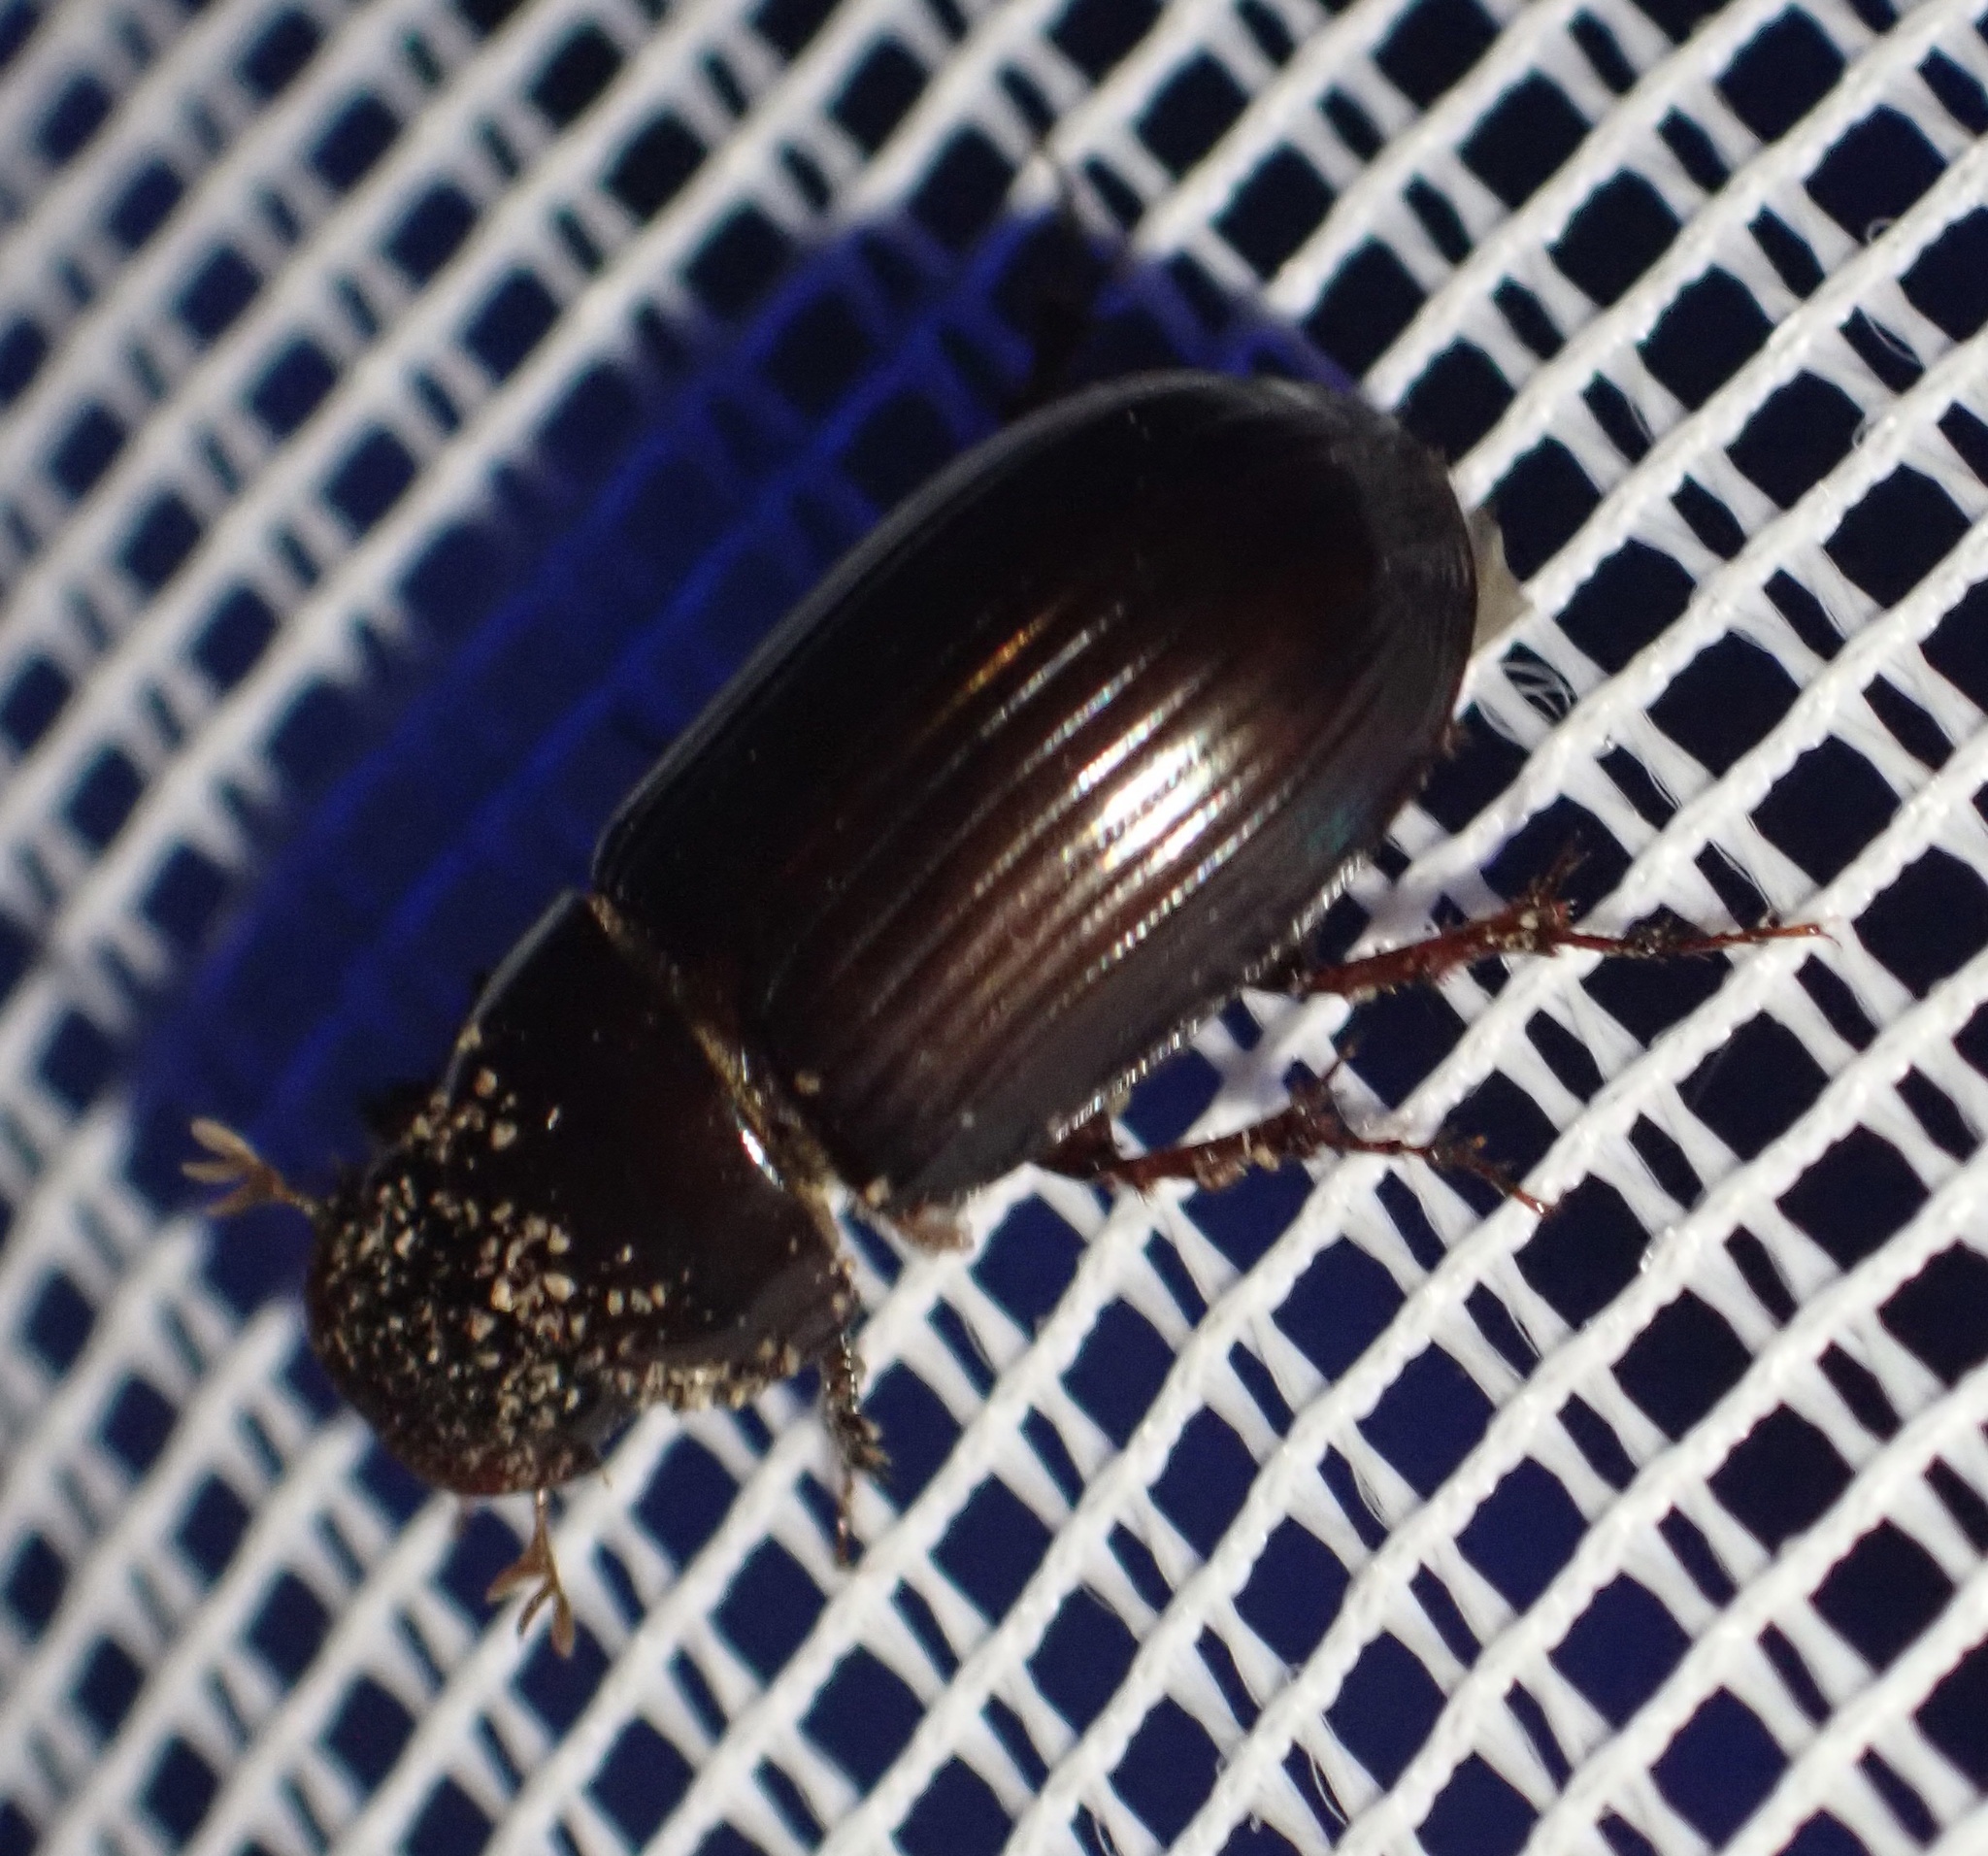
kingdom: Animalia
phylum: Arthropoda
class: Insecta
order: Coleoptera
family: Scarabaeidae
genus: Acrossus
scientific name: Acrossus rufipes
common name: Night-flying dung beetle
